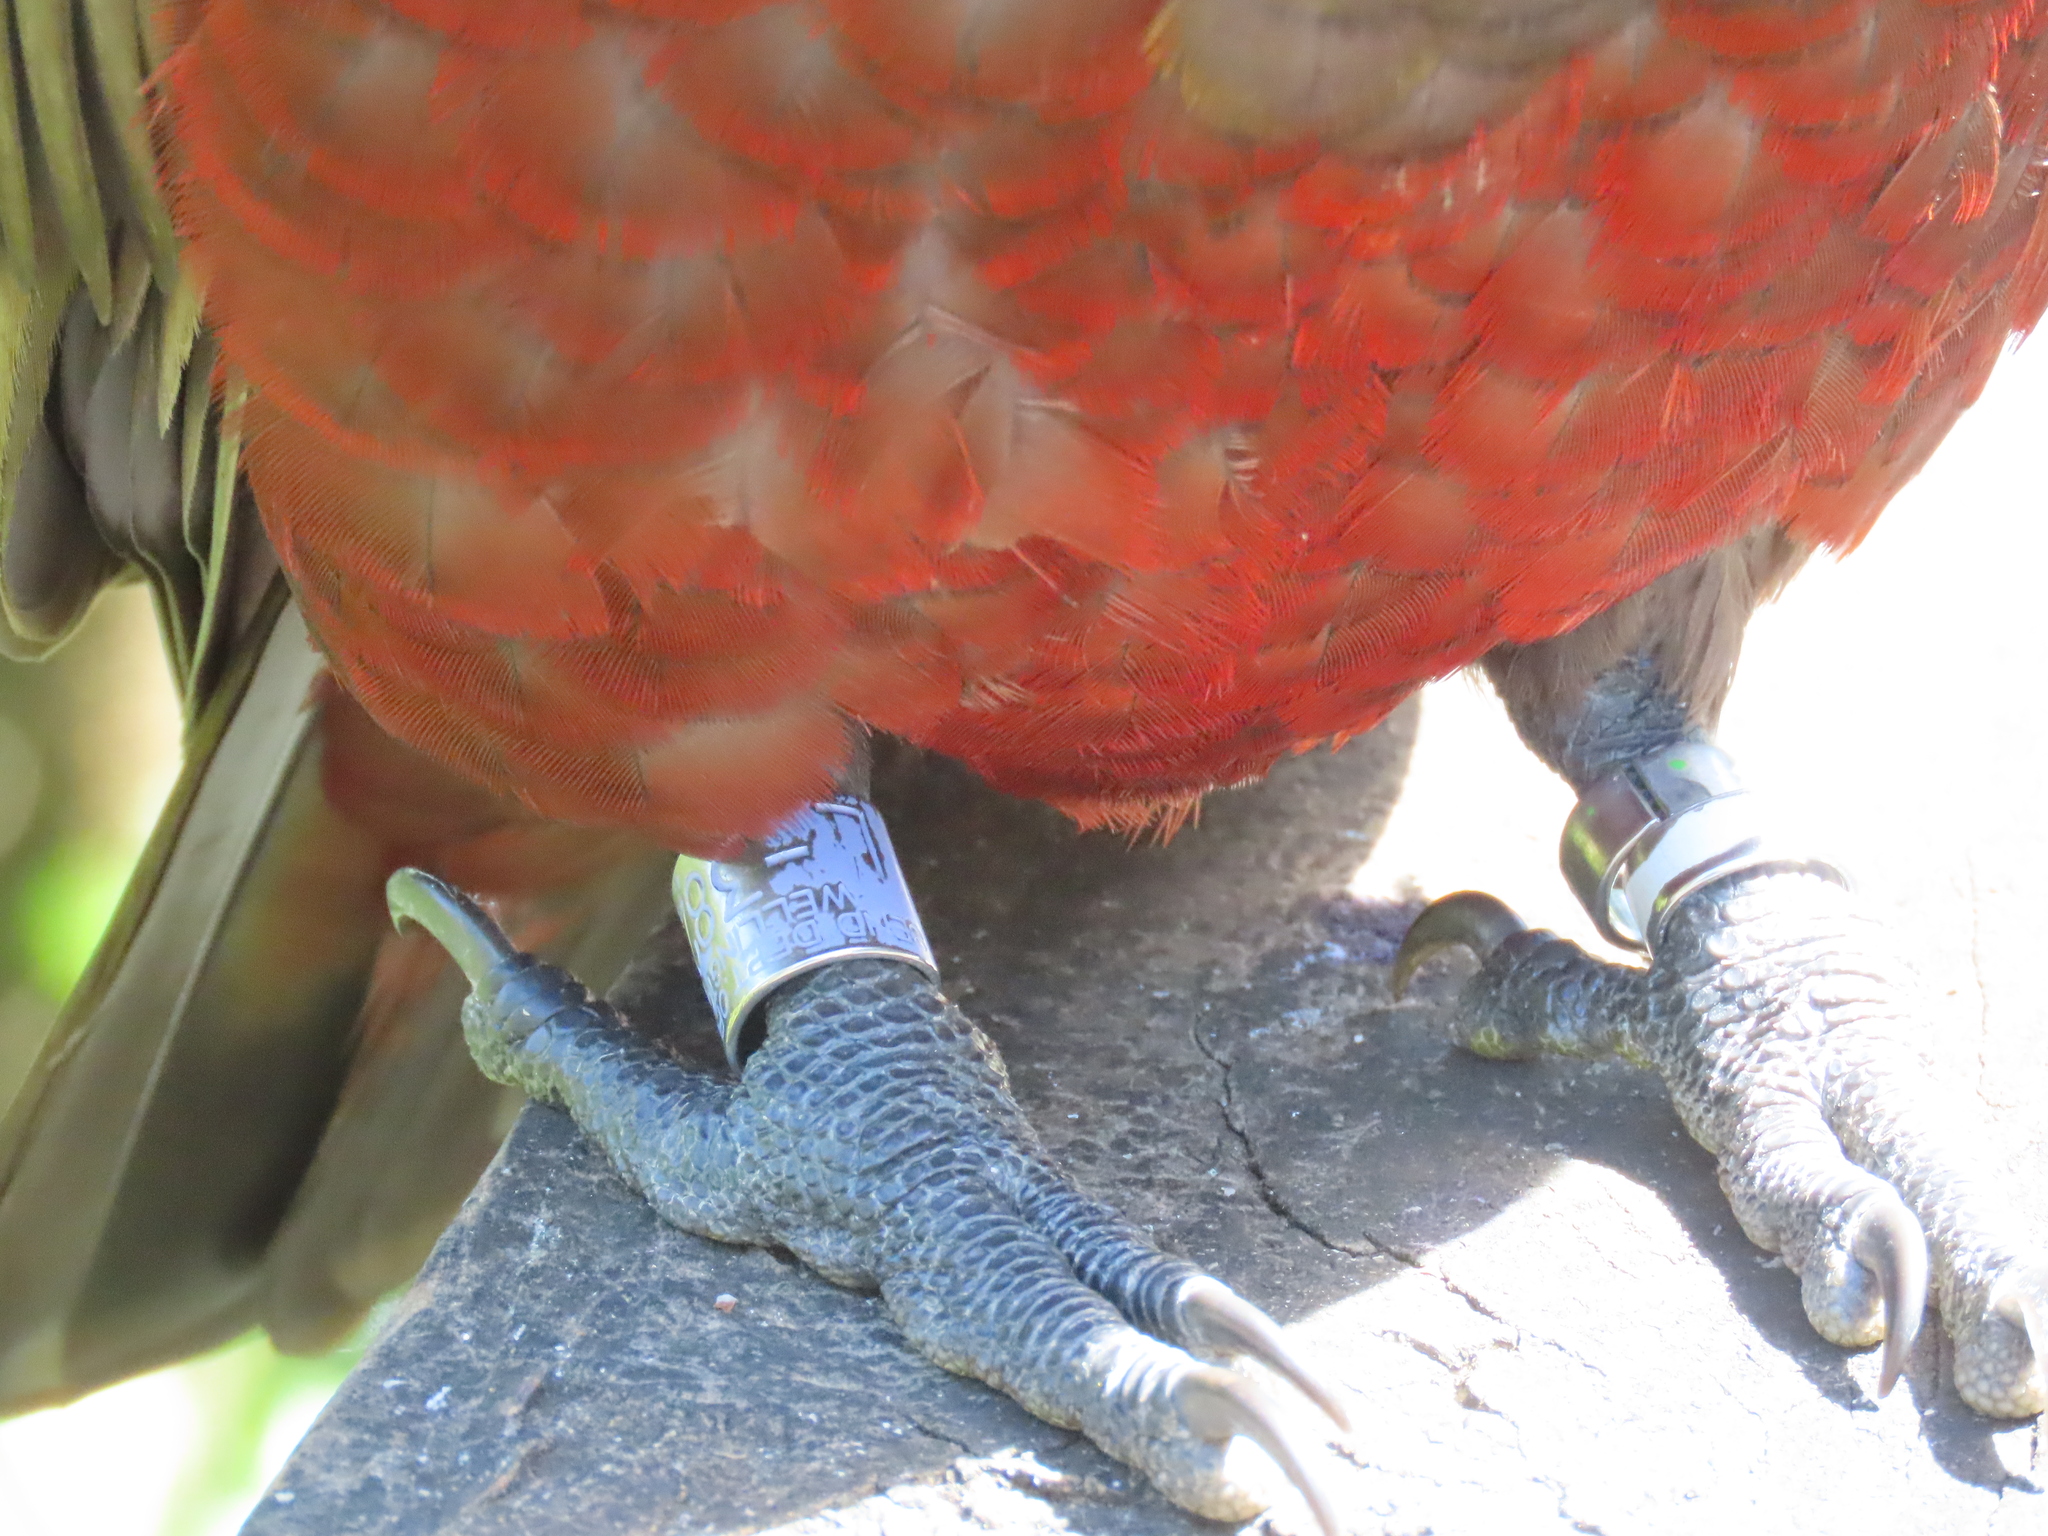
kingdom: Animalia
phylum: Chordata
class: Aves
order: Psittaciformes
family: Psittacidae
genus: Nestor
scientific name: Nestor meridionalis
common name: New zealand kaka
